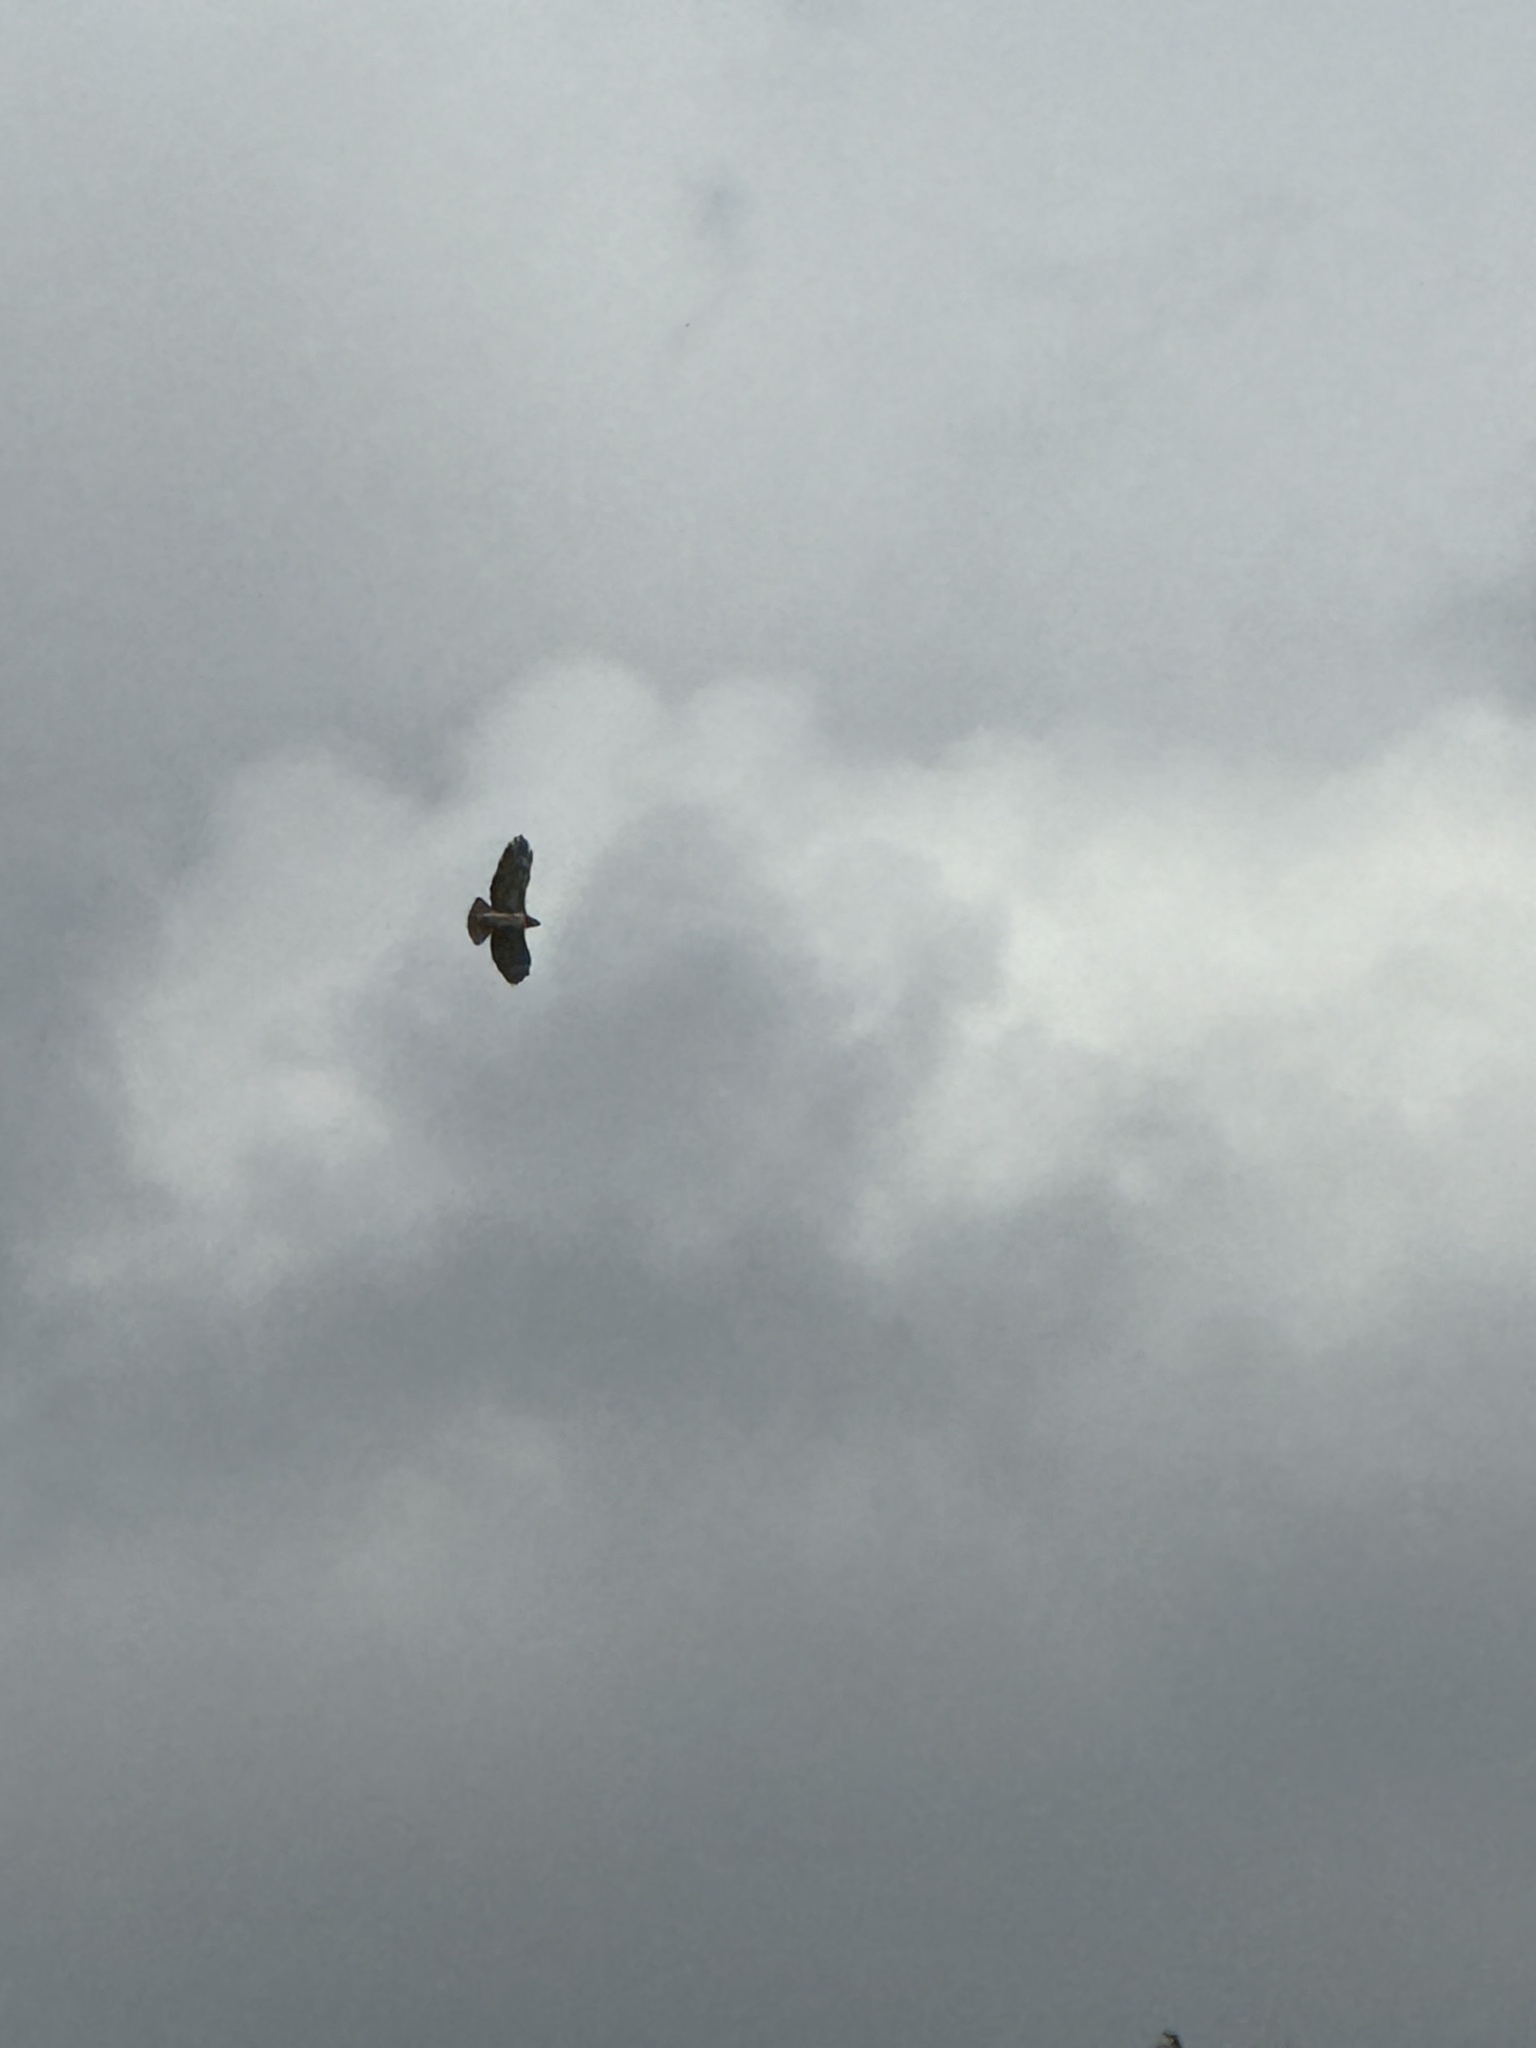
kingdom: Animalia
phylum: Chordata
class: Aves
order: Accipitriformes
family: Accipitridae
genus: Buteo
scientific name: Buteo jamaicensis
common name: Red-tailed hawk
